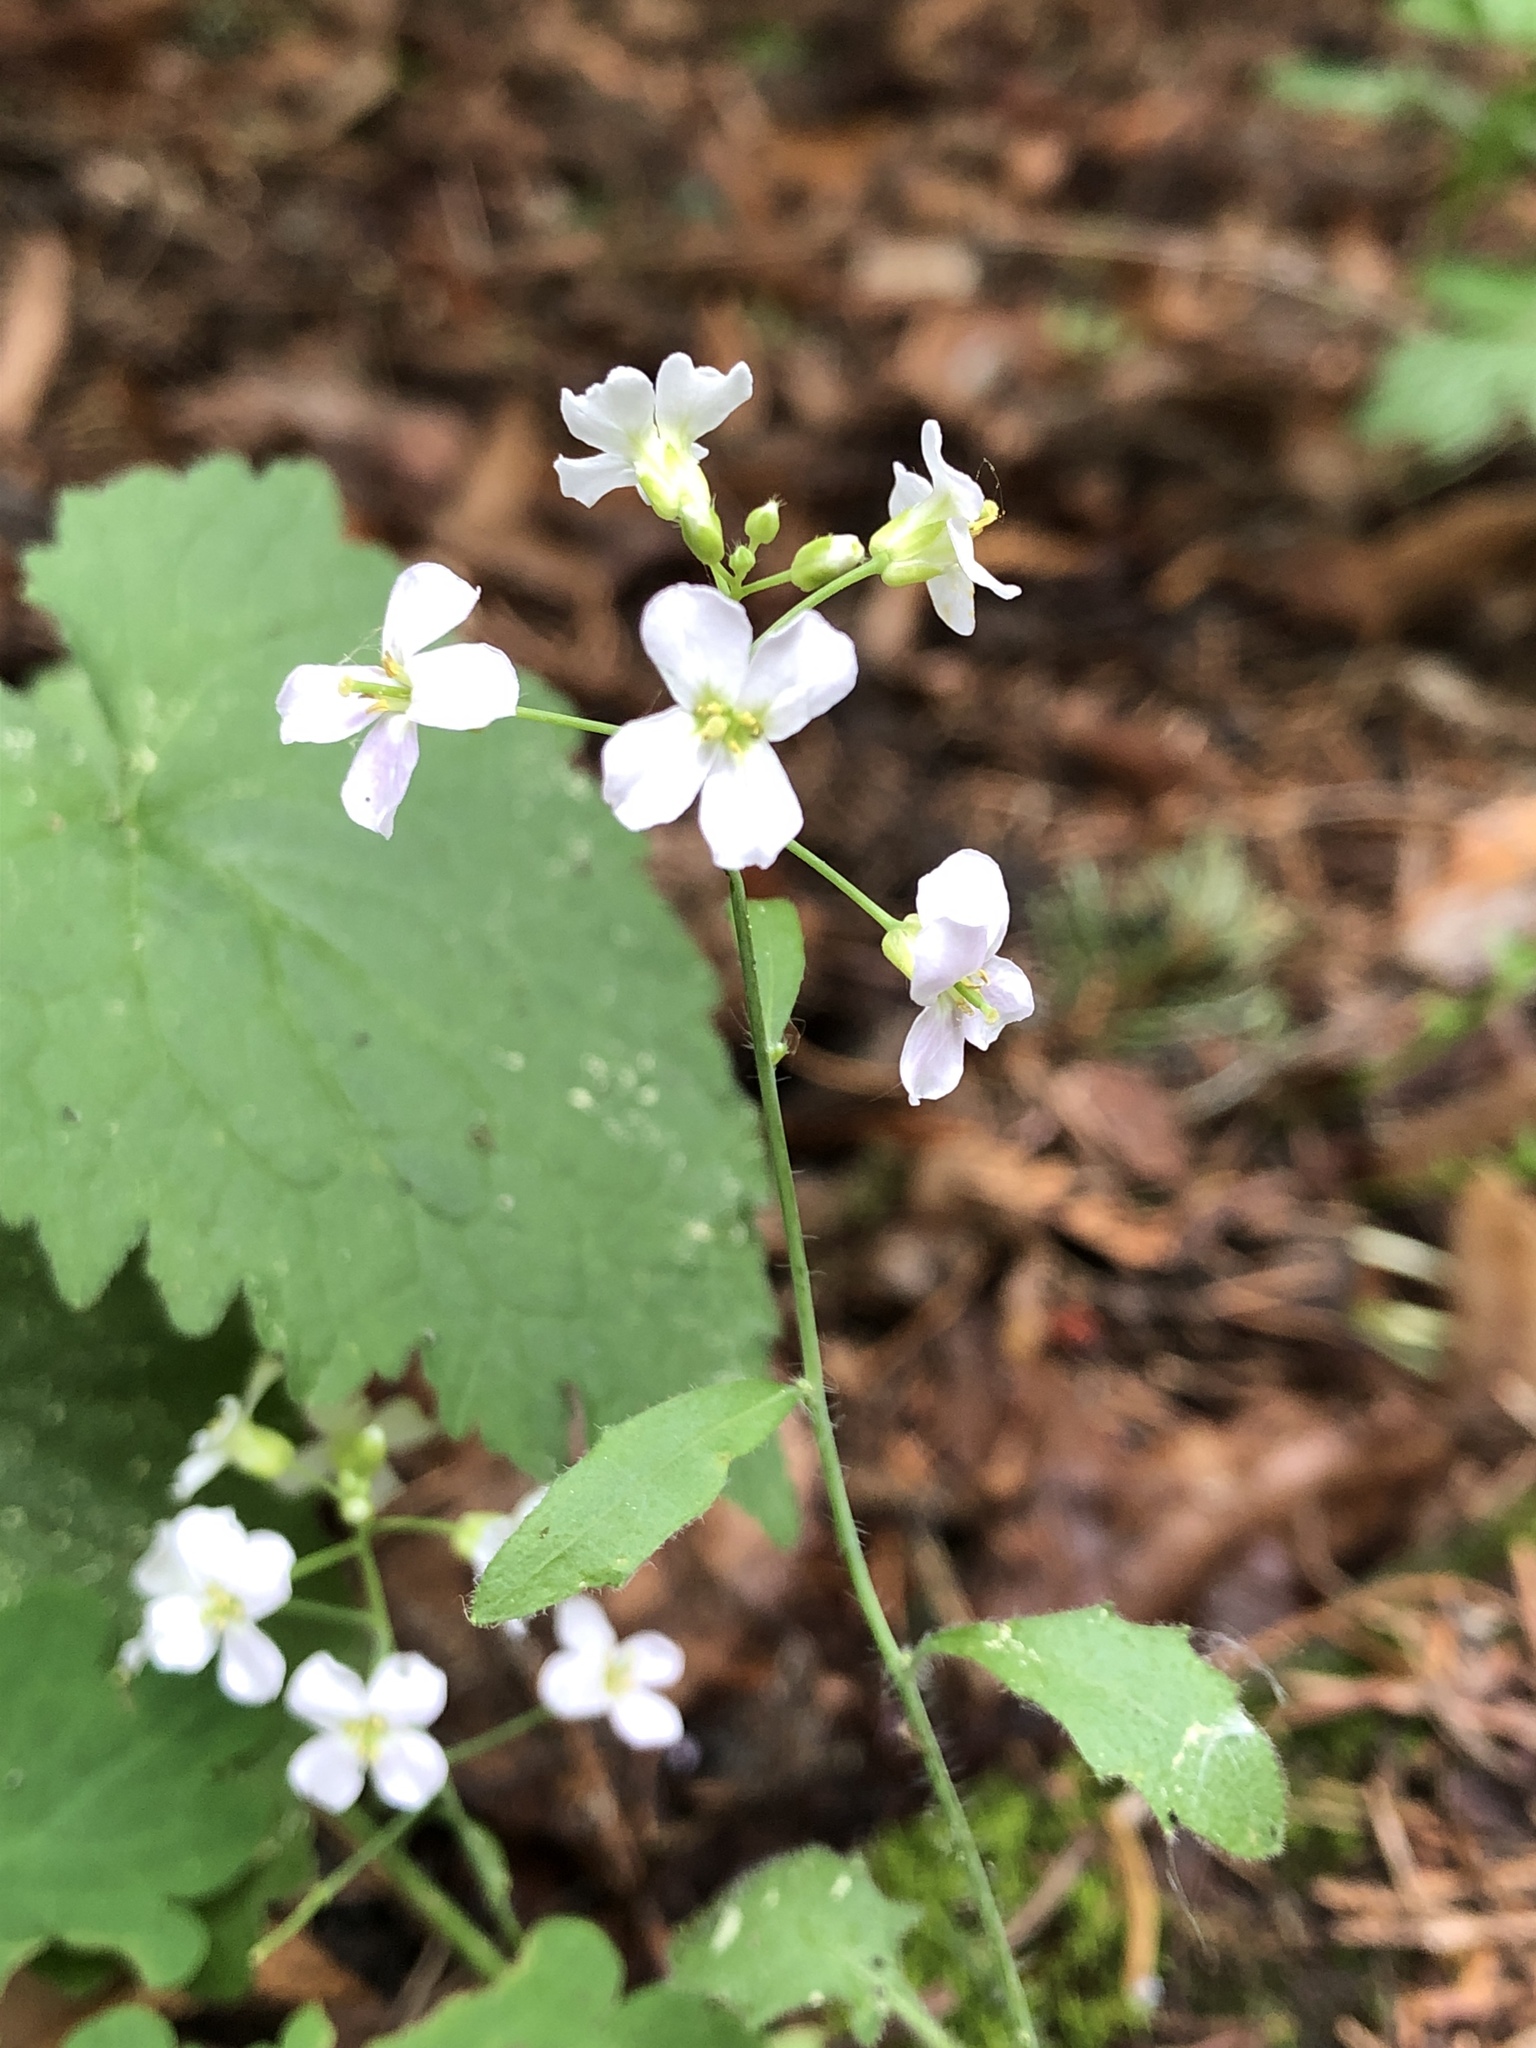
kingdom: Plantae
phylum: Tracheophyta
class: Magnoliopsida
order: Brassicales
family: Brassicaceae
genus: Arabidopsis
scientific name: Arabidopsis arenosa
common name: Sand rock-cress
